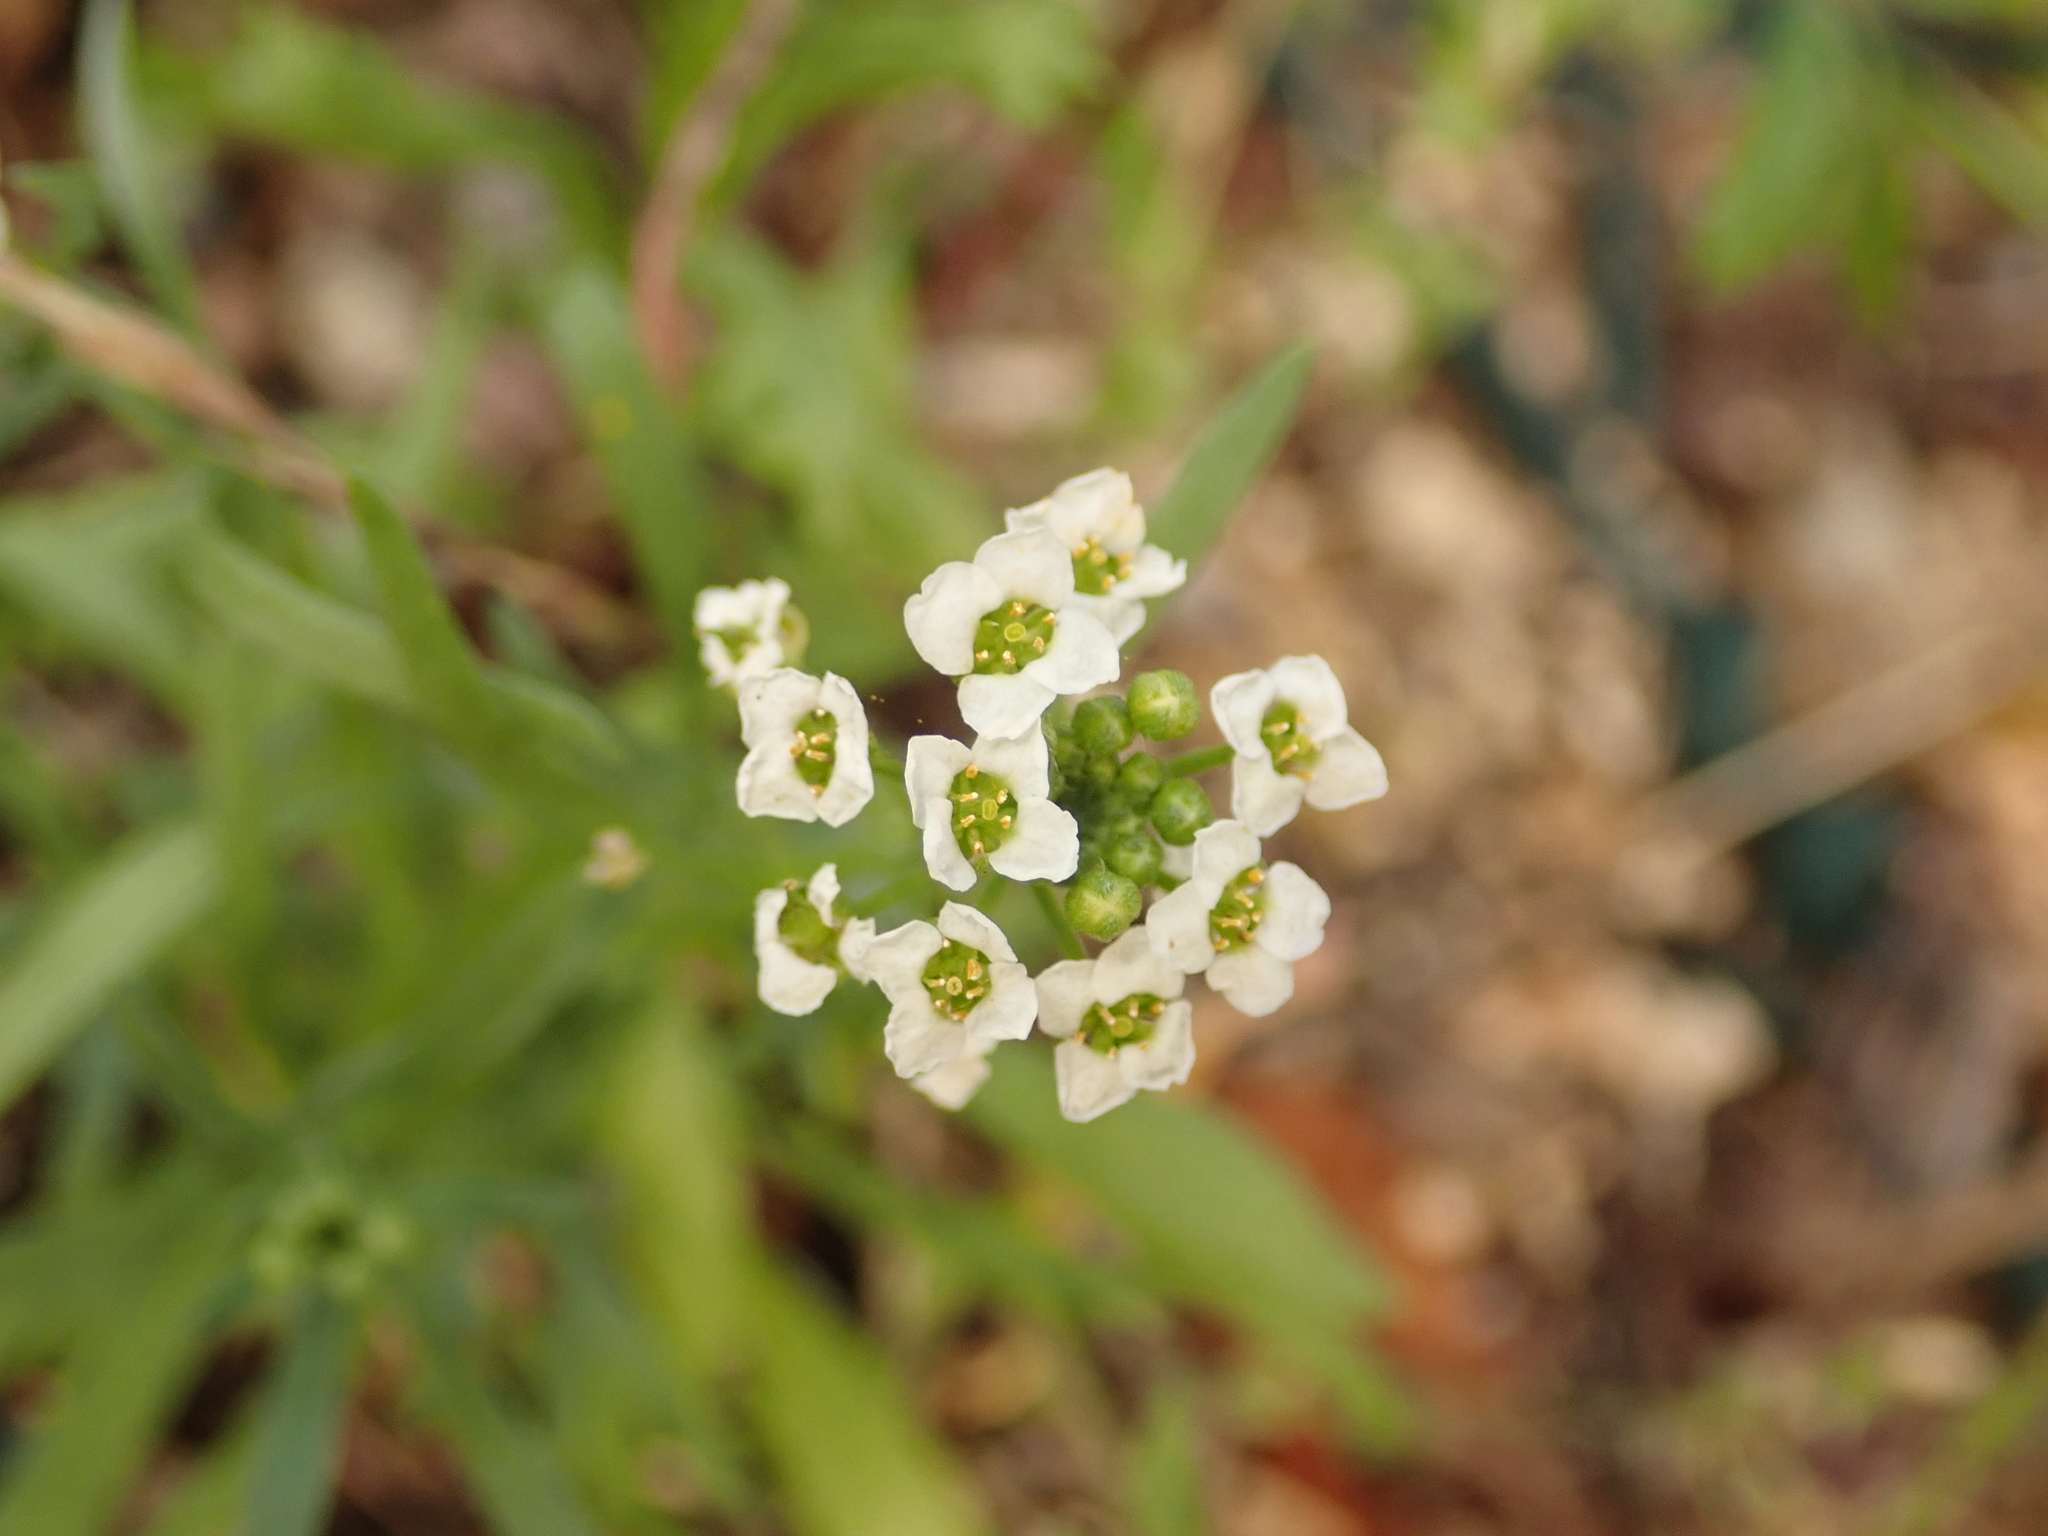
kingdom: Plantae
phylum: Tracheophyta
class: Magnoliopsida
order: Brassicales
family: Brassicaceae
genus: Lobularia
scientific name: Lobularia maritima
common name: Sweet alison
